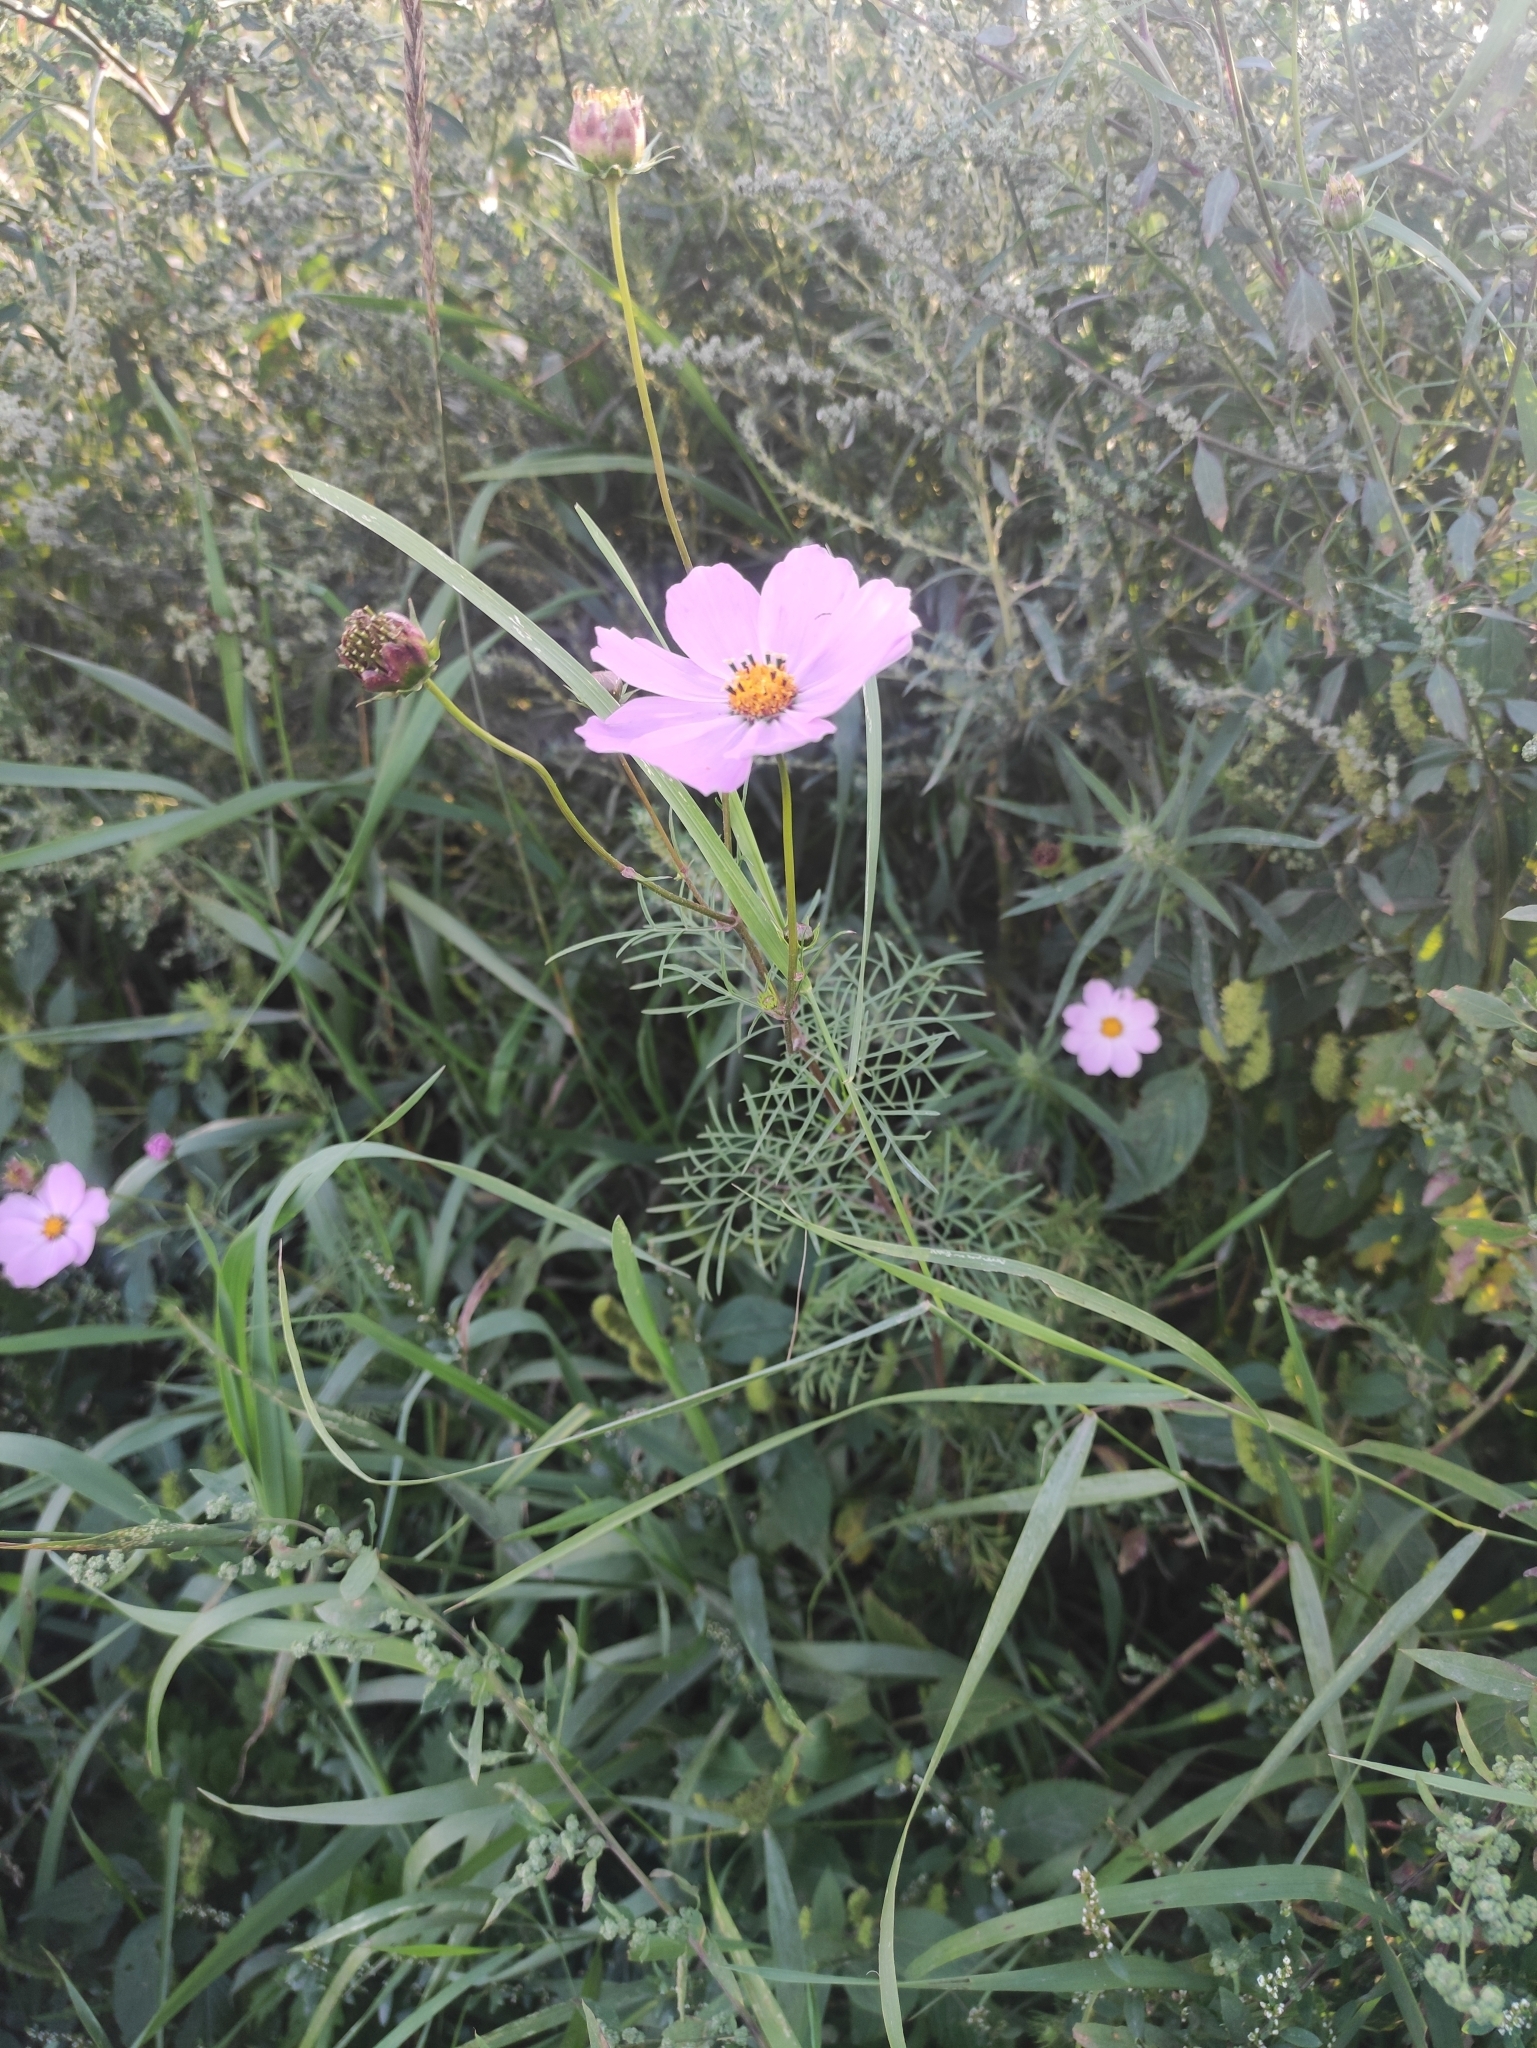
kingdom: Plantae
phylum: Tracheophyta
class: Magnoliopsida
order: Asterales
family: Asteraceae
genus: Cosmos
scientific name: Cosmos bipinnatus
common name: Garden cosmos
